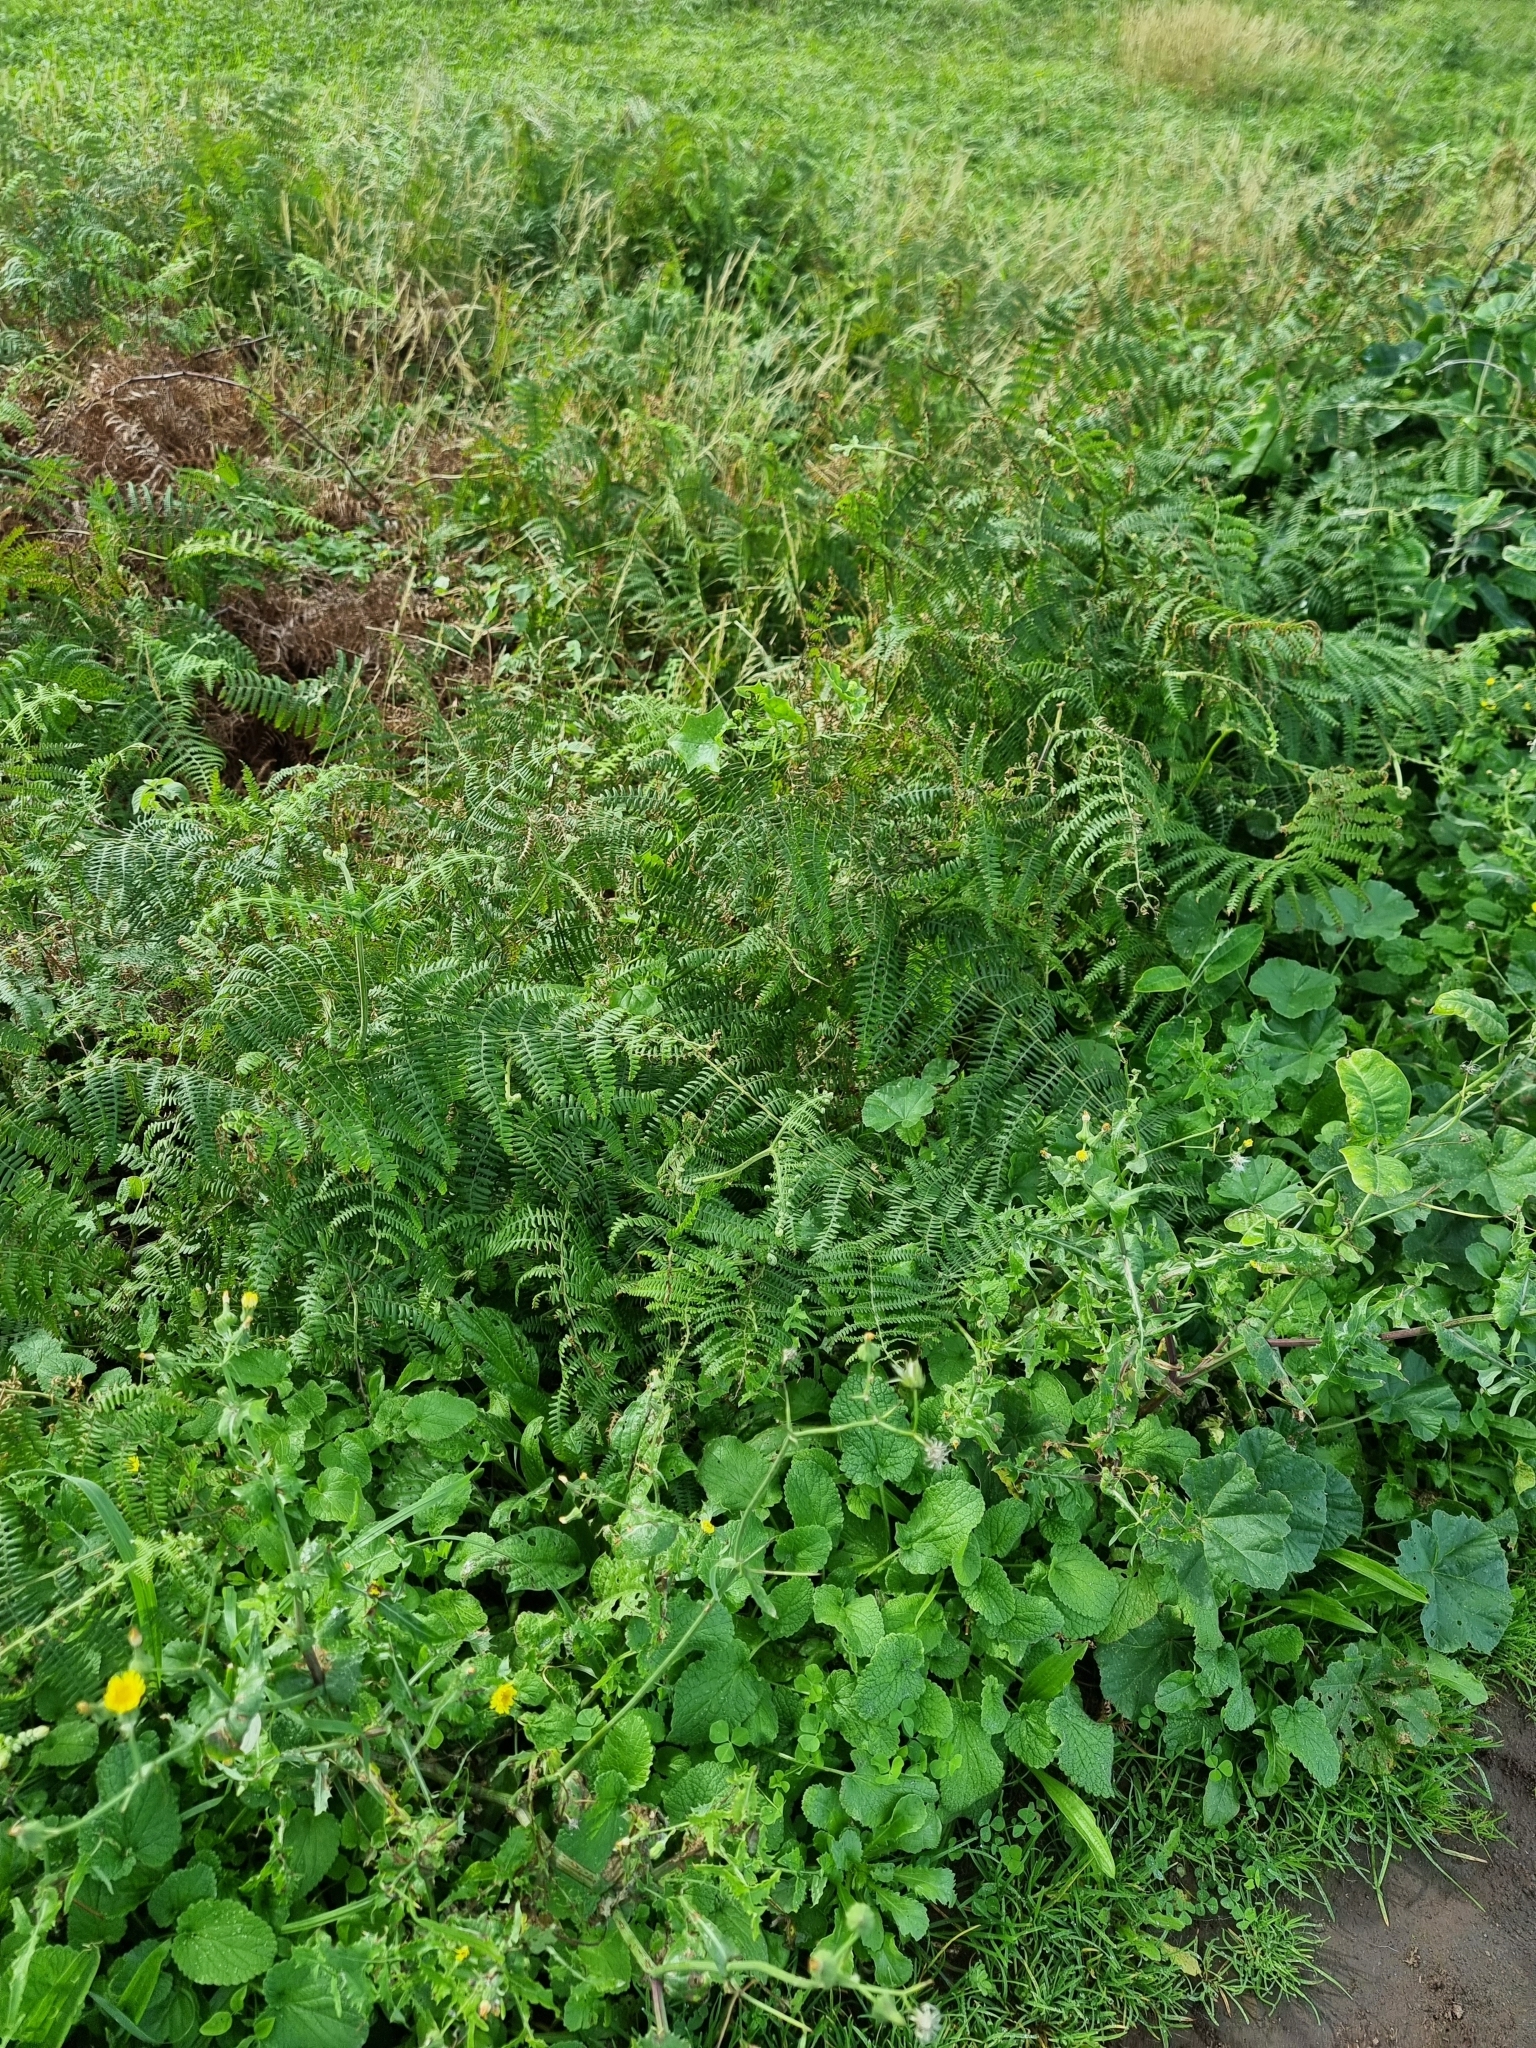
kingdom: Plantae
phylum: Tracheophyta
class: Polypodiopsida
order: Polypodiales
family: Dennstaedtiaceae
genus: Pteridium
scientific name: Pteridium aquilinum
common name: Bracken
